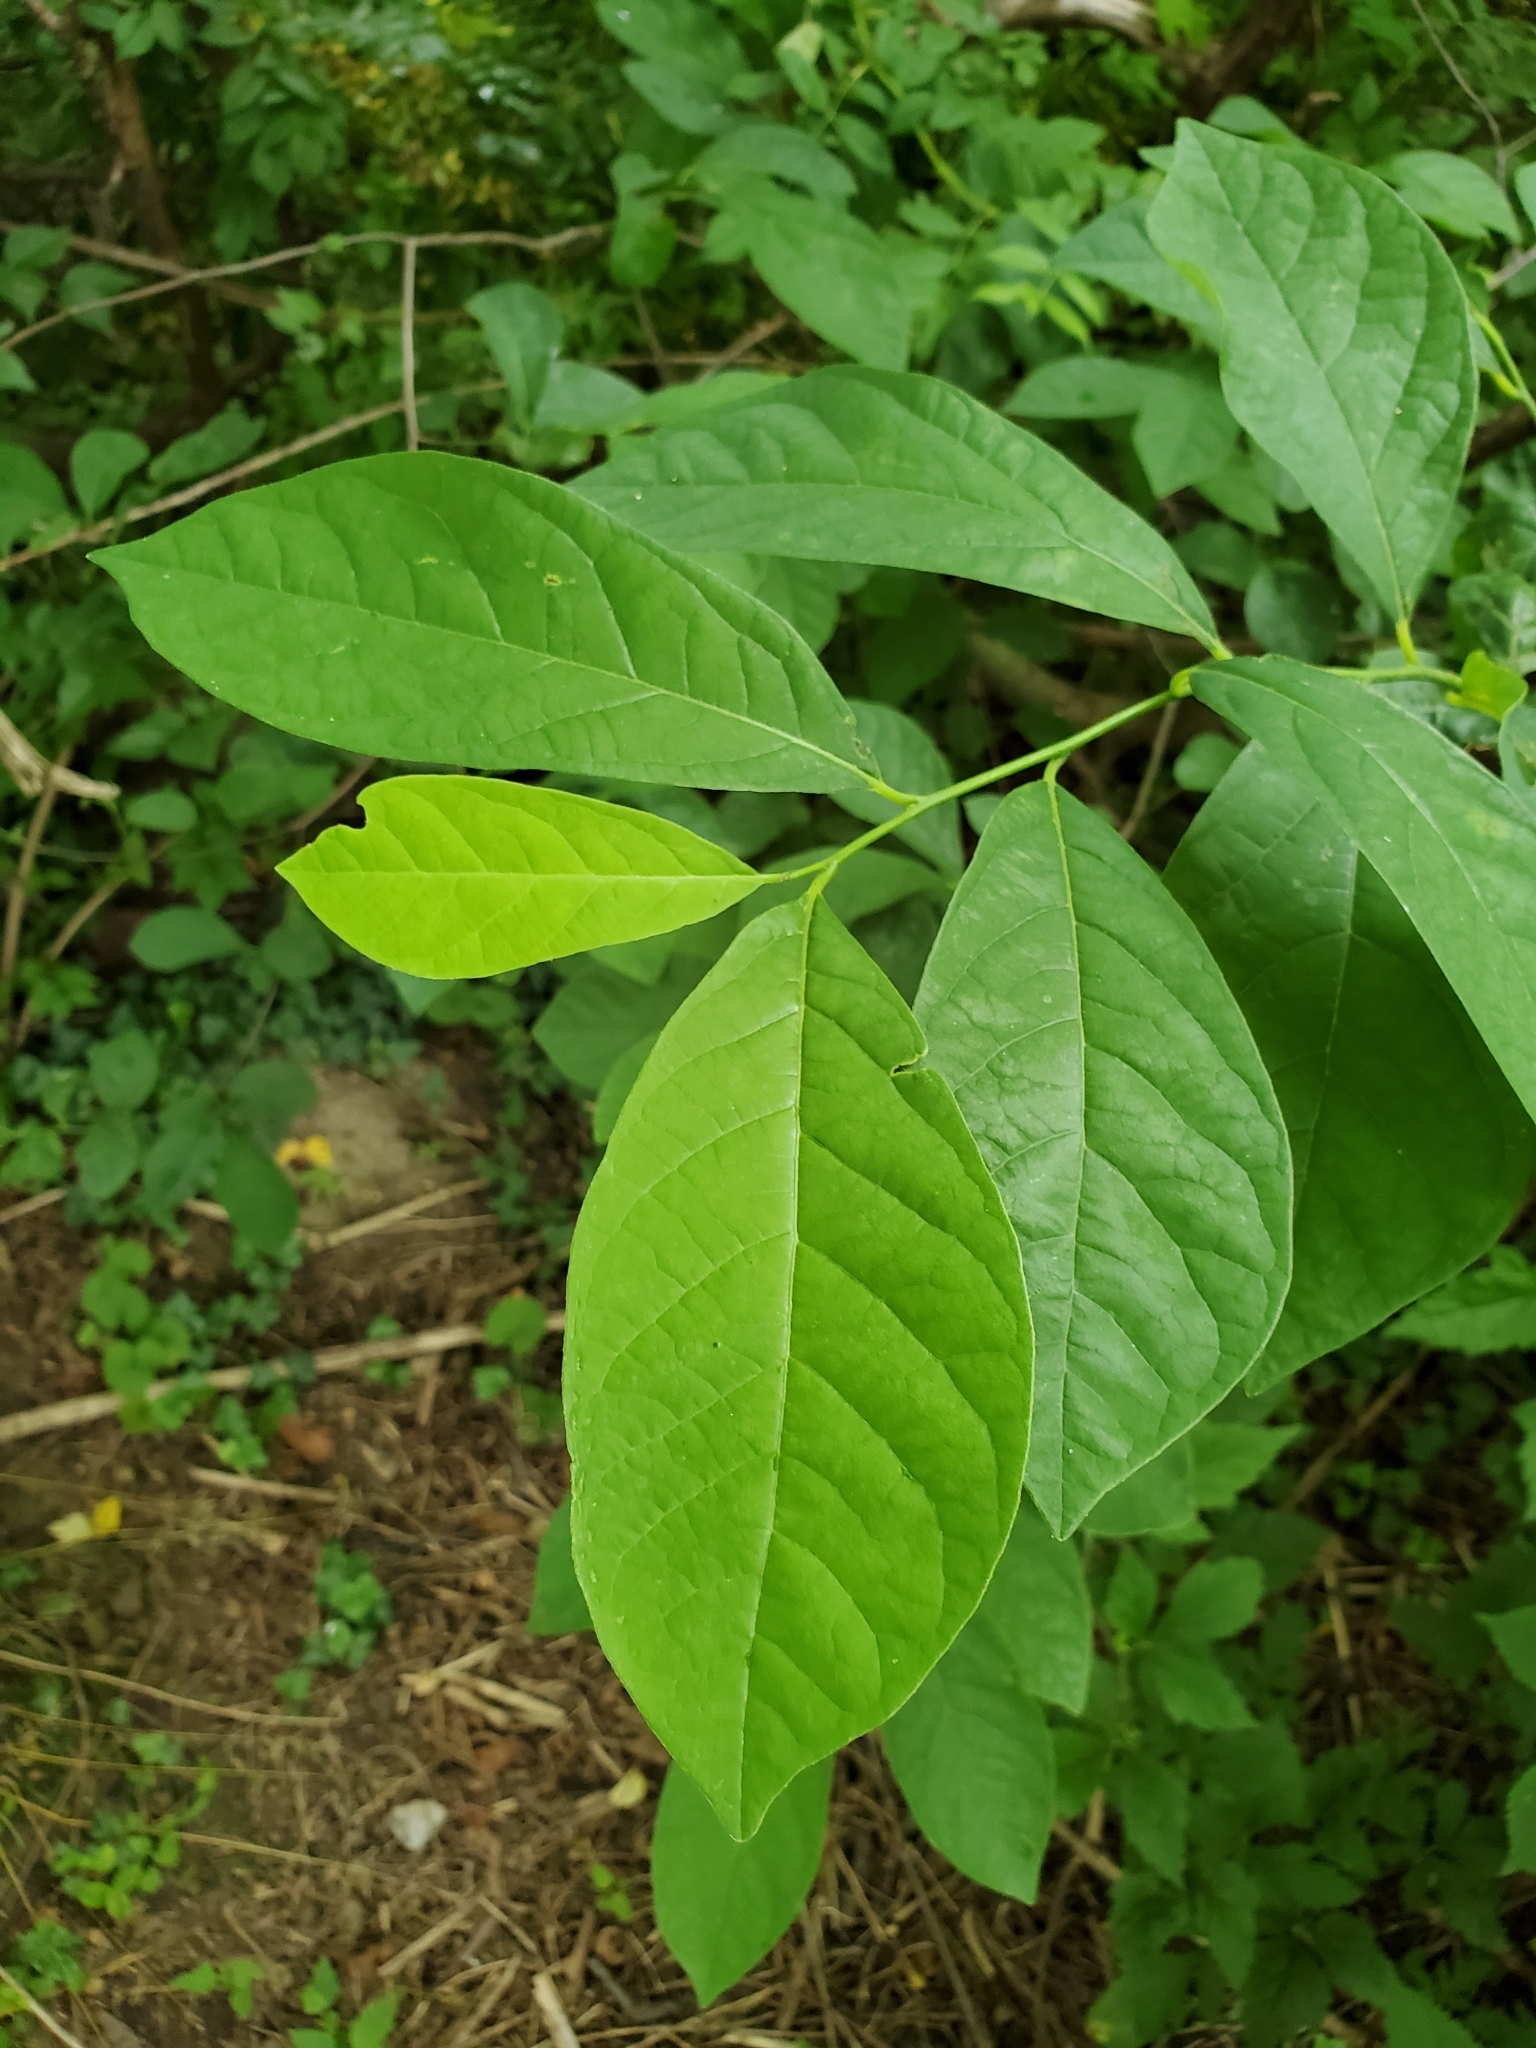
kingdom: Plantae
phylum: Tracheophyta
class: Magnoliopsida
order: Laurales
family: Lauraceae
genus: Lindera
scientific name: Lindera benzoin
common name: Spicebush
